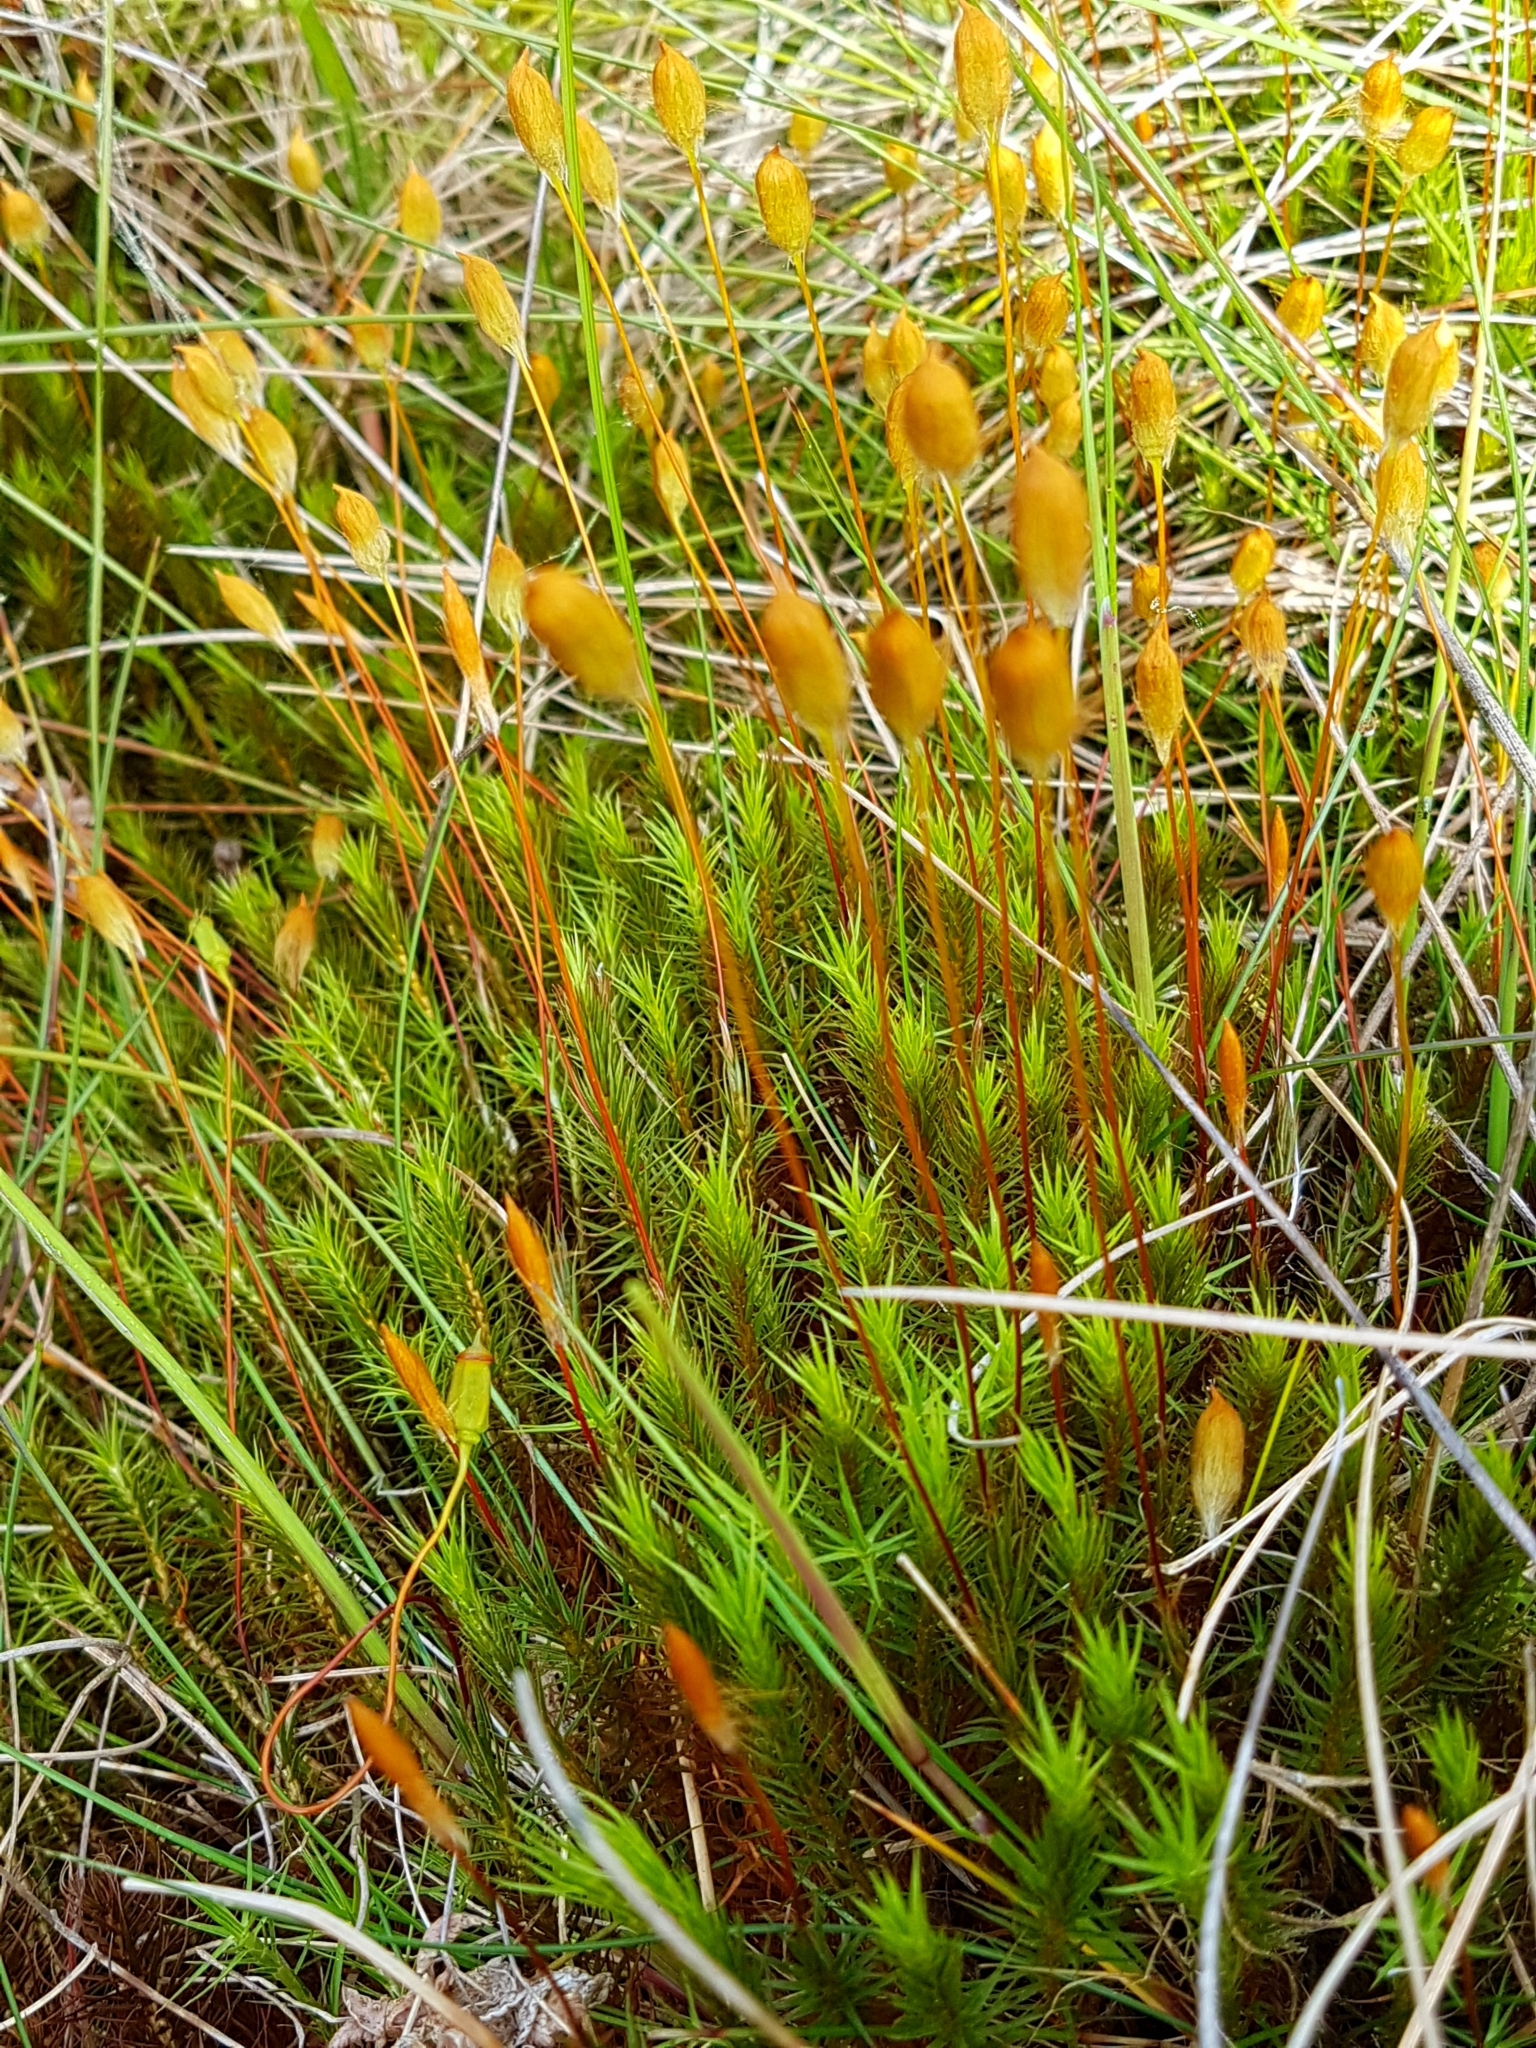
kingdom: Plantae
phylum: Bryophyta
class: Polytrichopsida
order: Polytrichales
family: Polytrichaceae
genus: Polytrichum
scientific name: Polytrichum commune
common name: Common haircap
